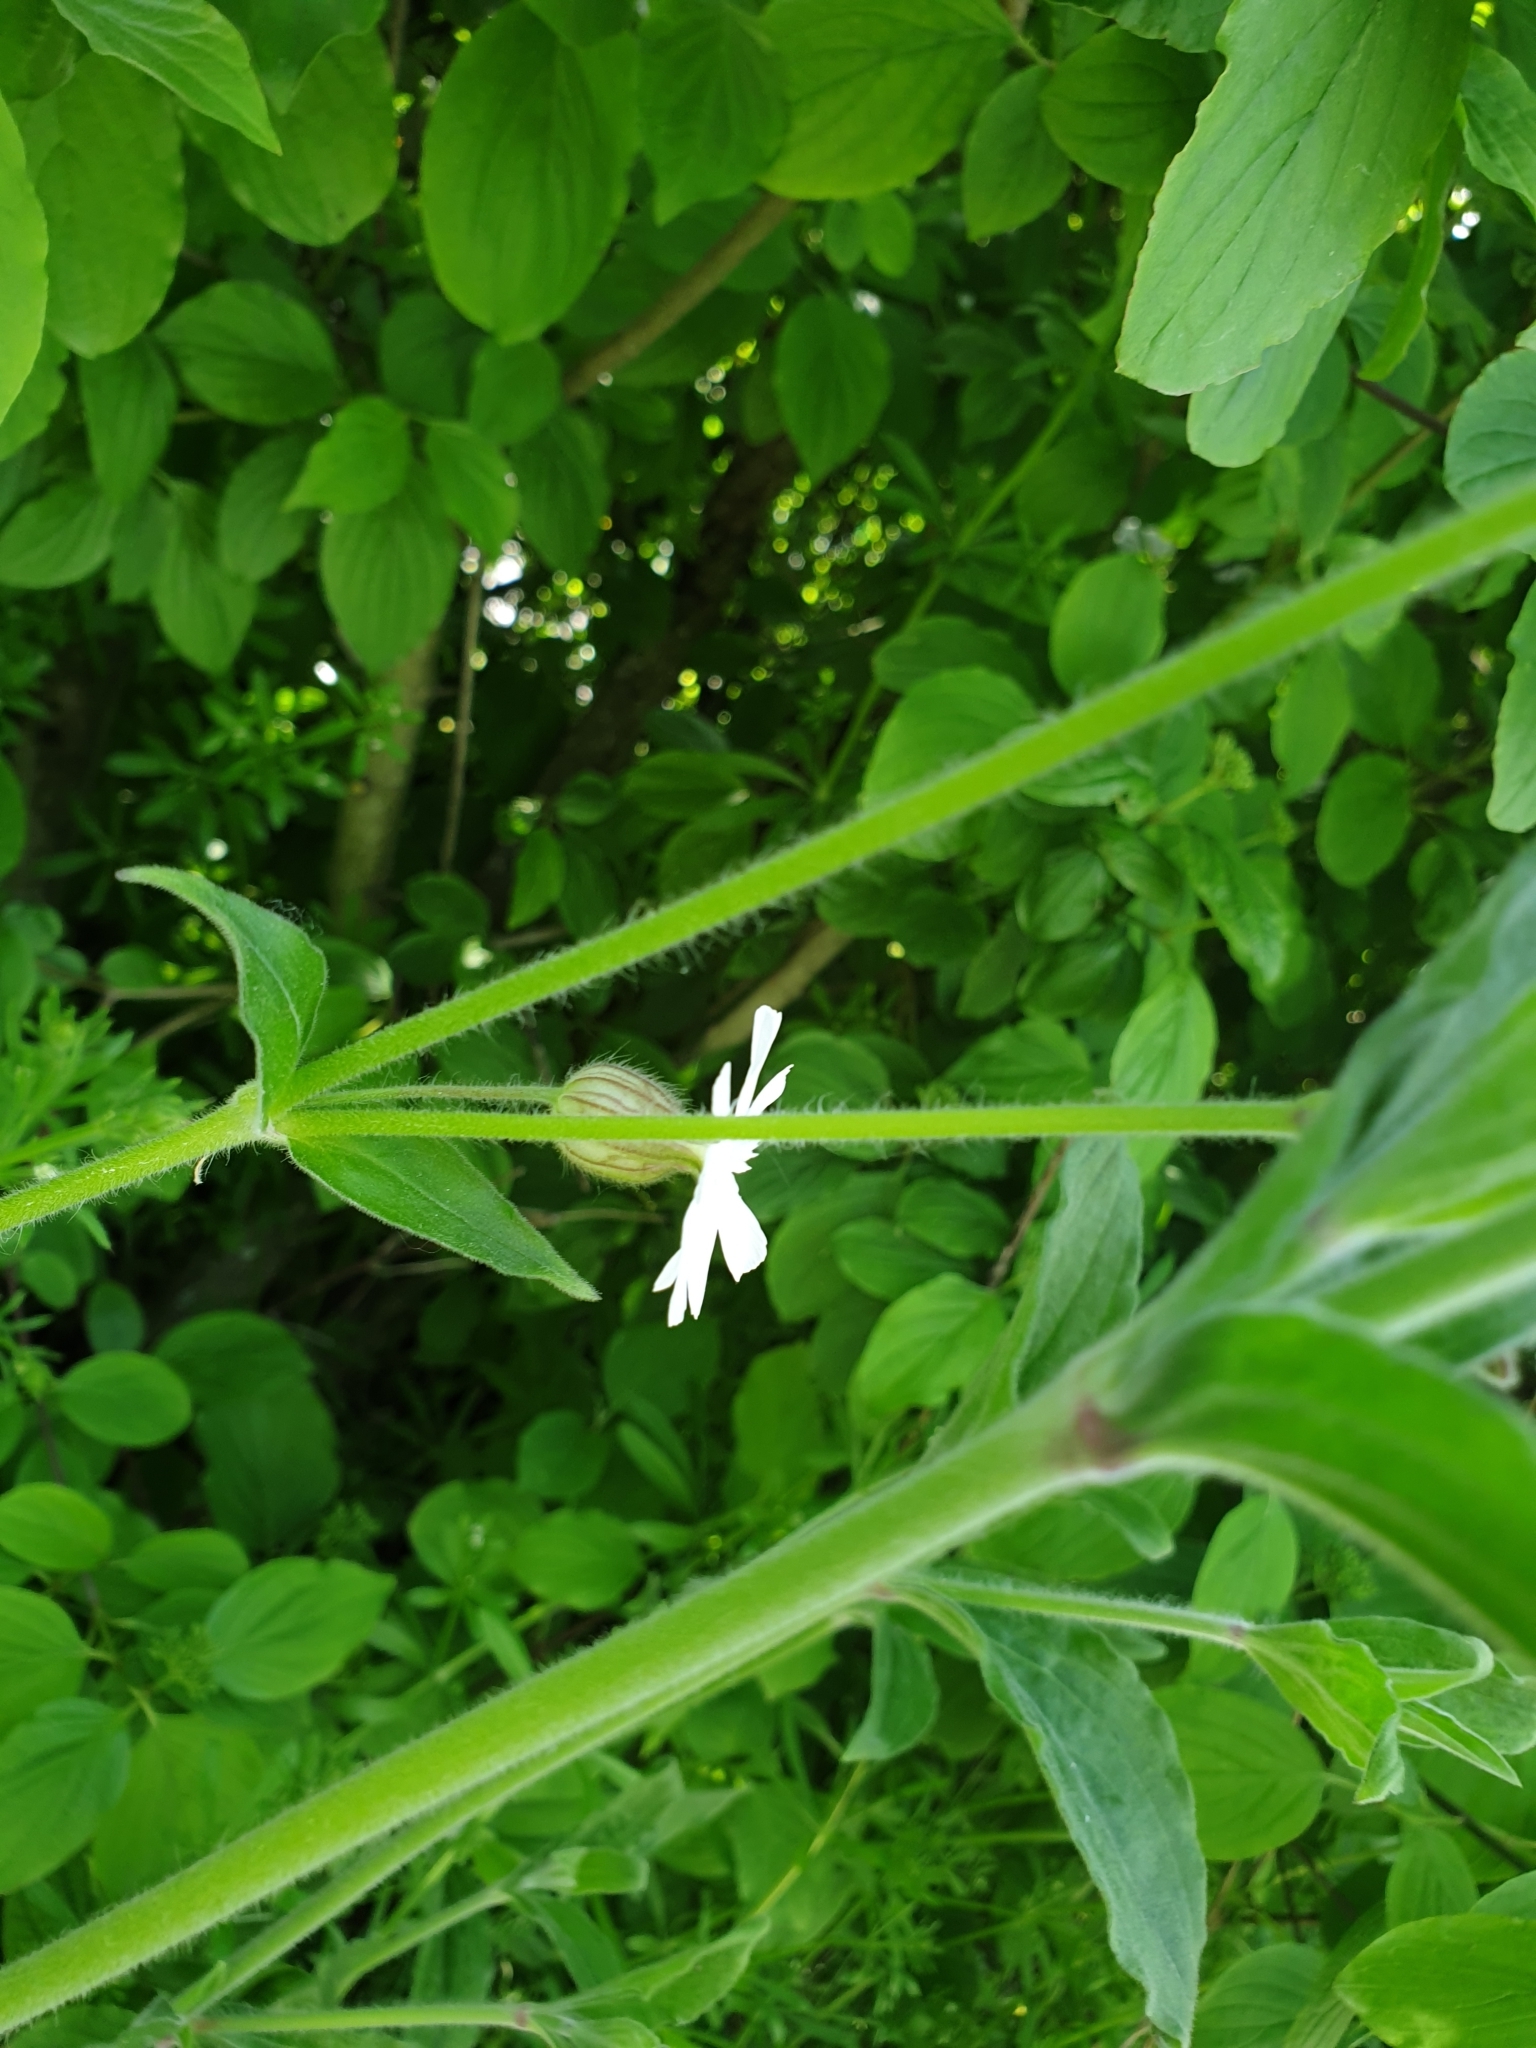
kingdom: Plantae
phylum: Tracheophyta
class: Magnoliopsida
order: Caryophyllales
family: Caryophyllaceae
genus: Silene
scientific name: Silene latifolia
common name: White campion
